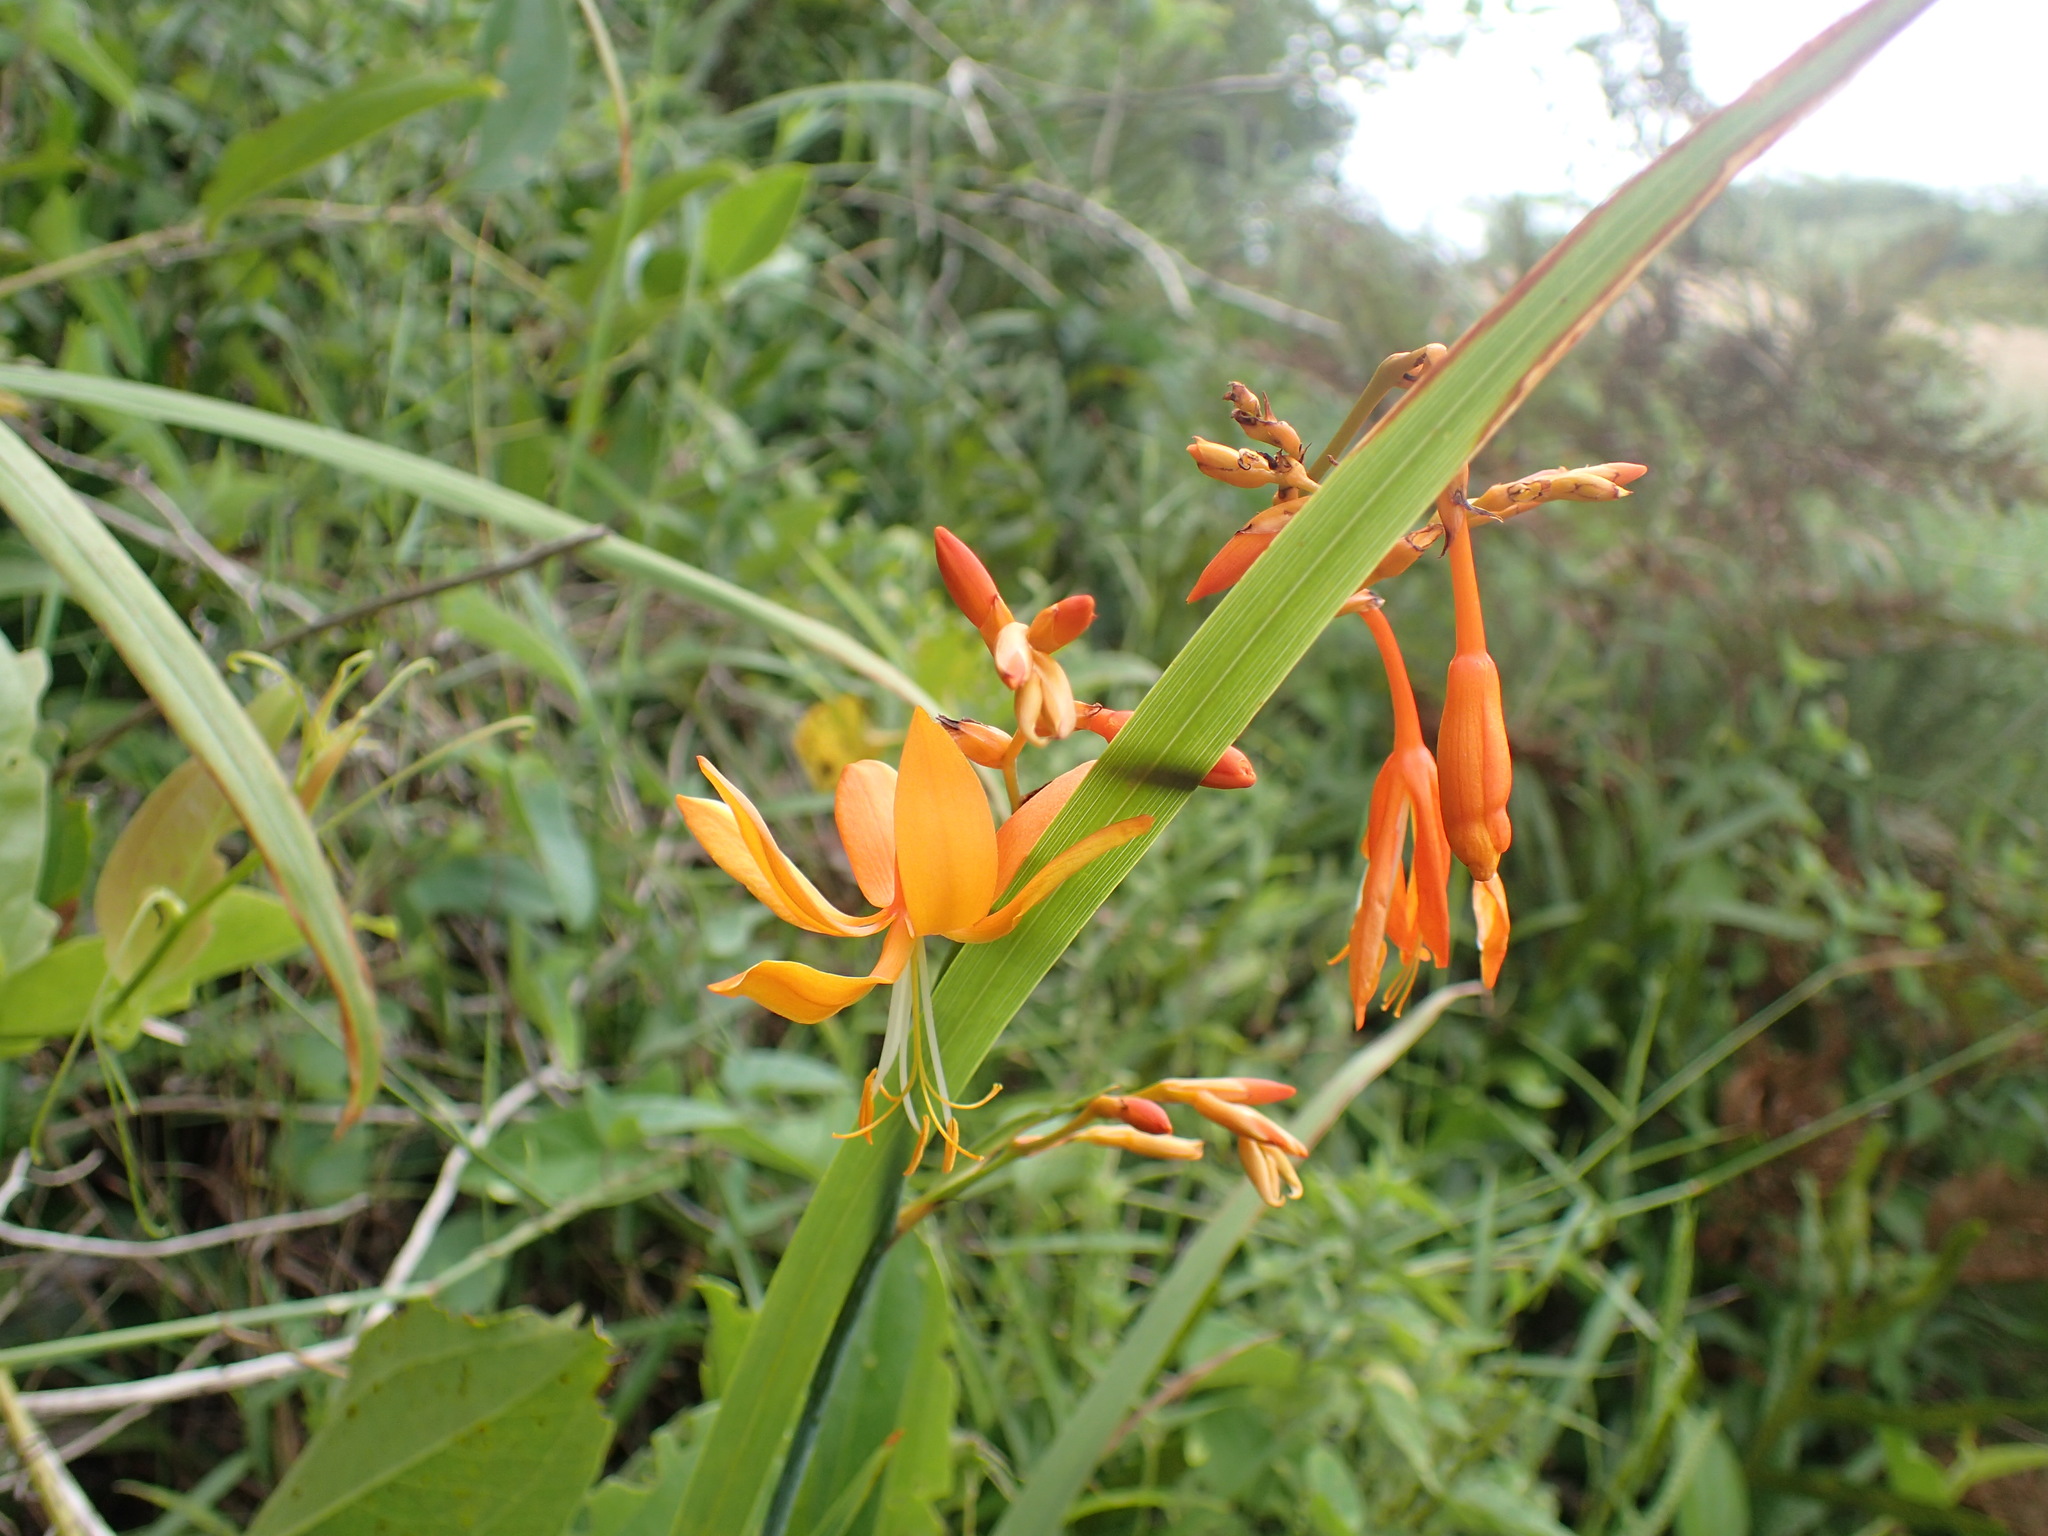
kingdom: Plantae
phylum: Tracheophyta
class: Liliopsida
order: Asparagales
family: Iridaceae
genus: Crocosmia
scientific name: Crocosmia aurea
